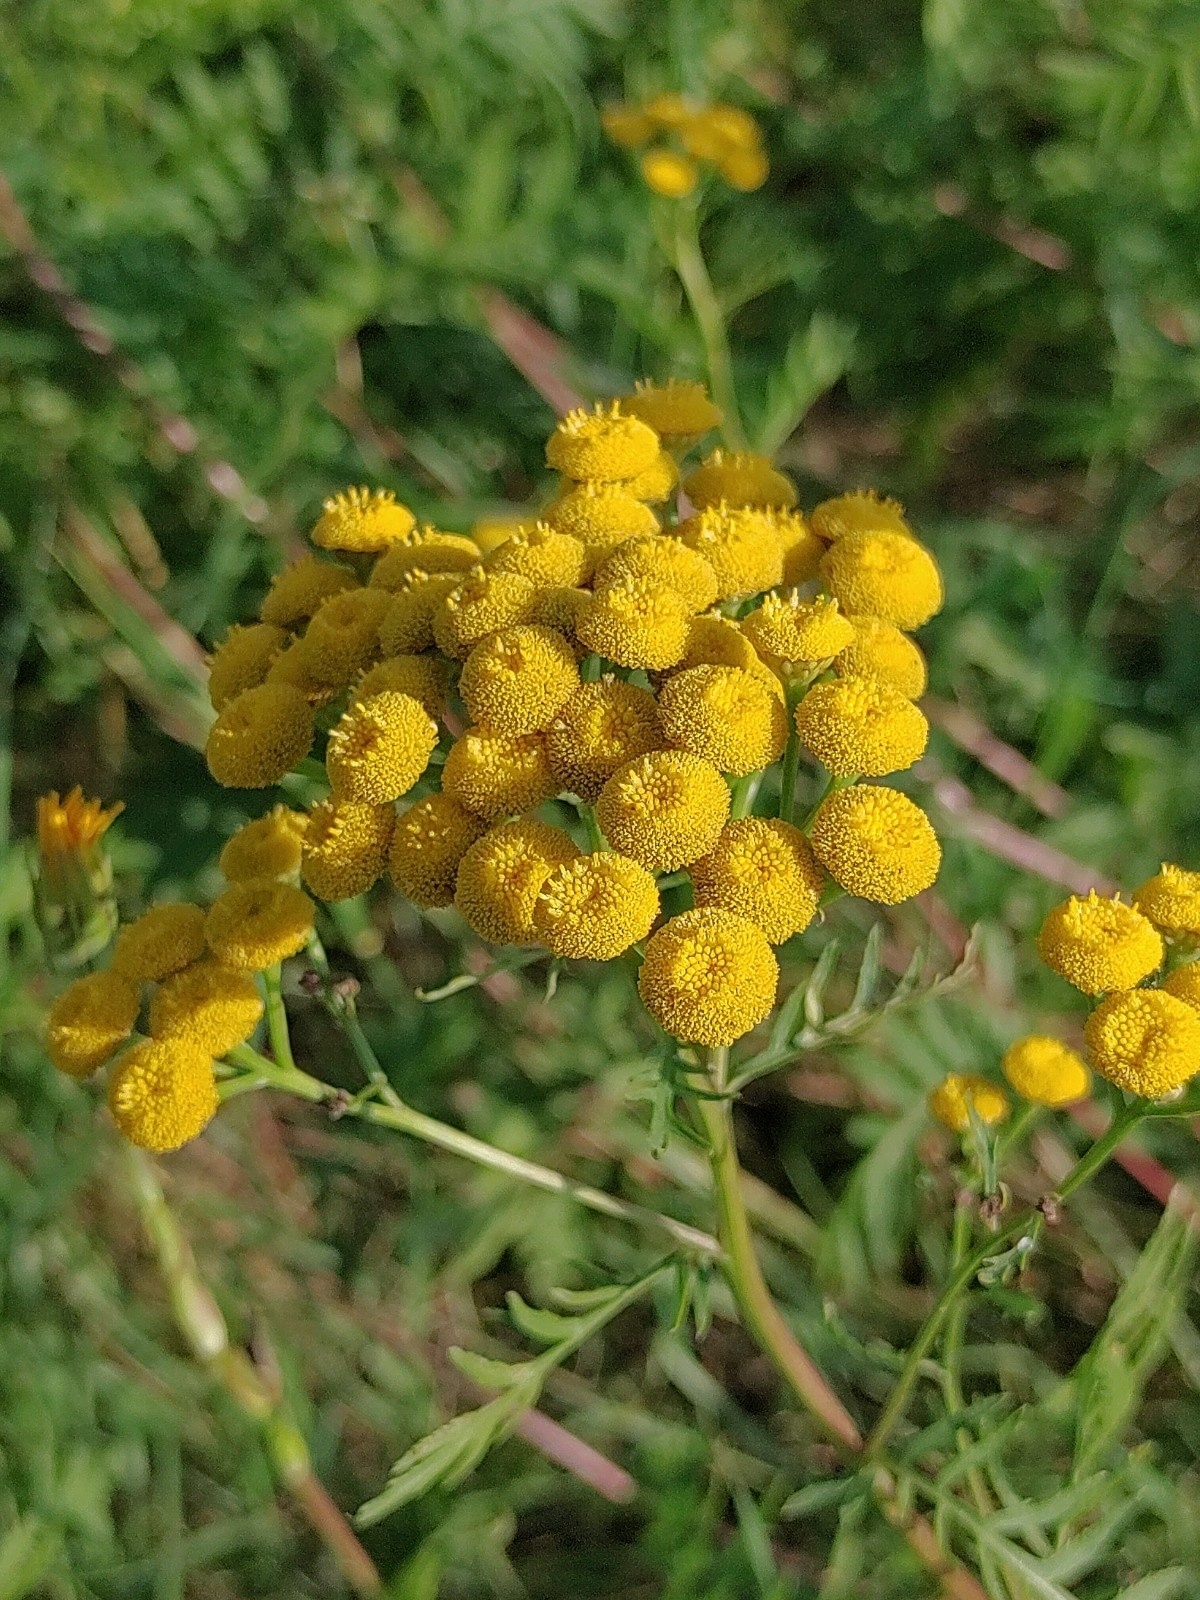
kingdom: Plantae
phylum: Tracheophyta
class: Magnoliopsida
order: Asterales
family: Asteraceae
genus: Tanacetum
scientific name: Tanacetum vulgare
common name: Common tansy
